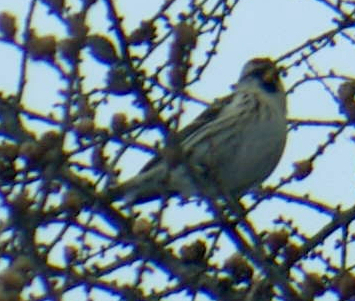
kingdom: Animalia
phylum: Chordata
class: Aves
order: Passeriformes
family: Fringillidae
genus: Acanthis
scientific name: Acanthis flammea
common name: Common redpoll
